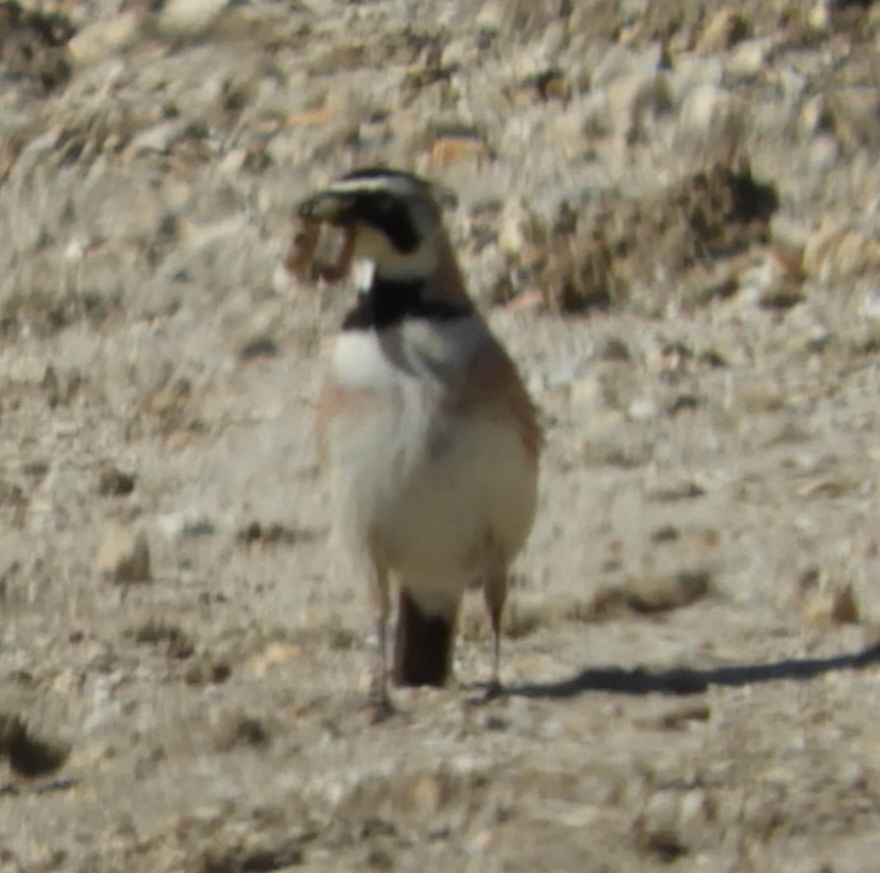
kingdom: Animalia
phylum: Chordata
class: Aves
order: Passeriformes
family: Alaudidae
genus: Eremophila
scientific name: Eremophila alpestris
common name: Horned lark
